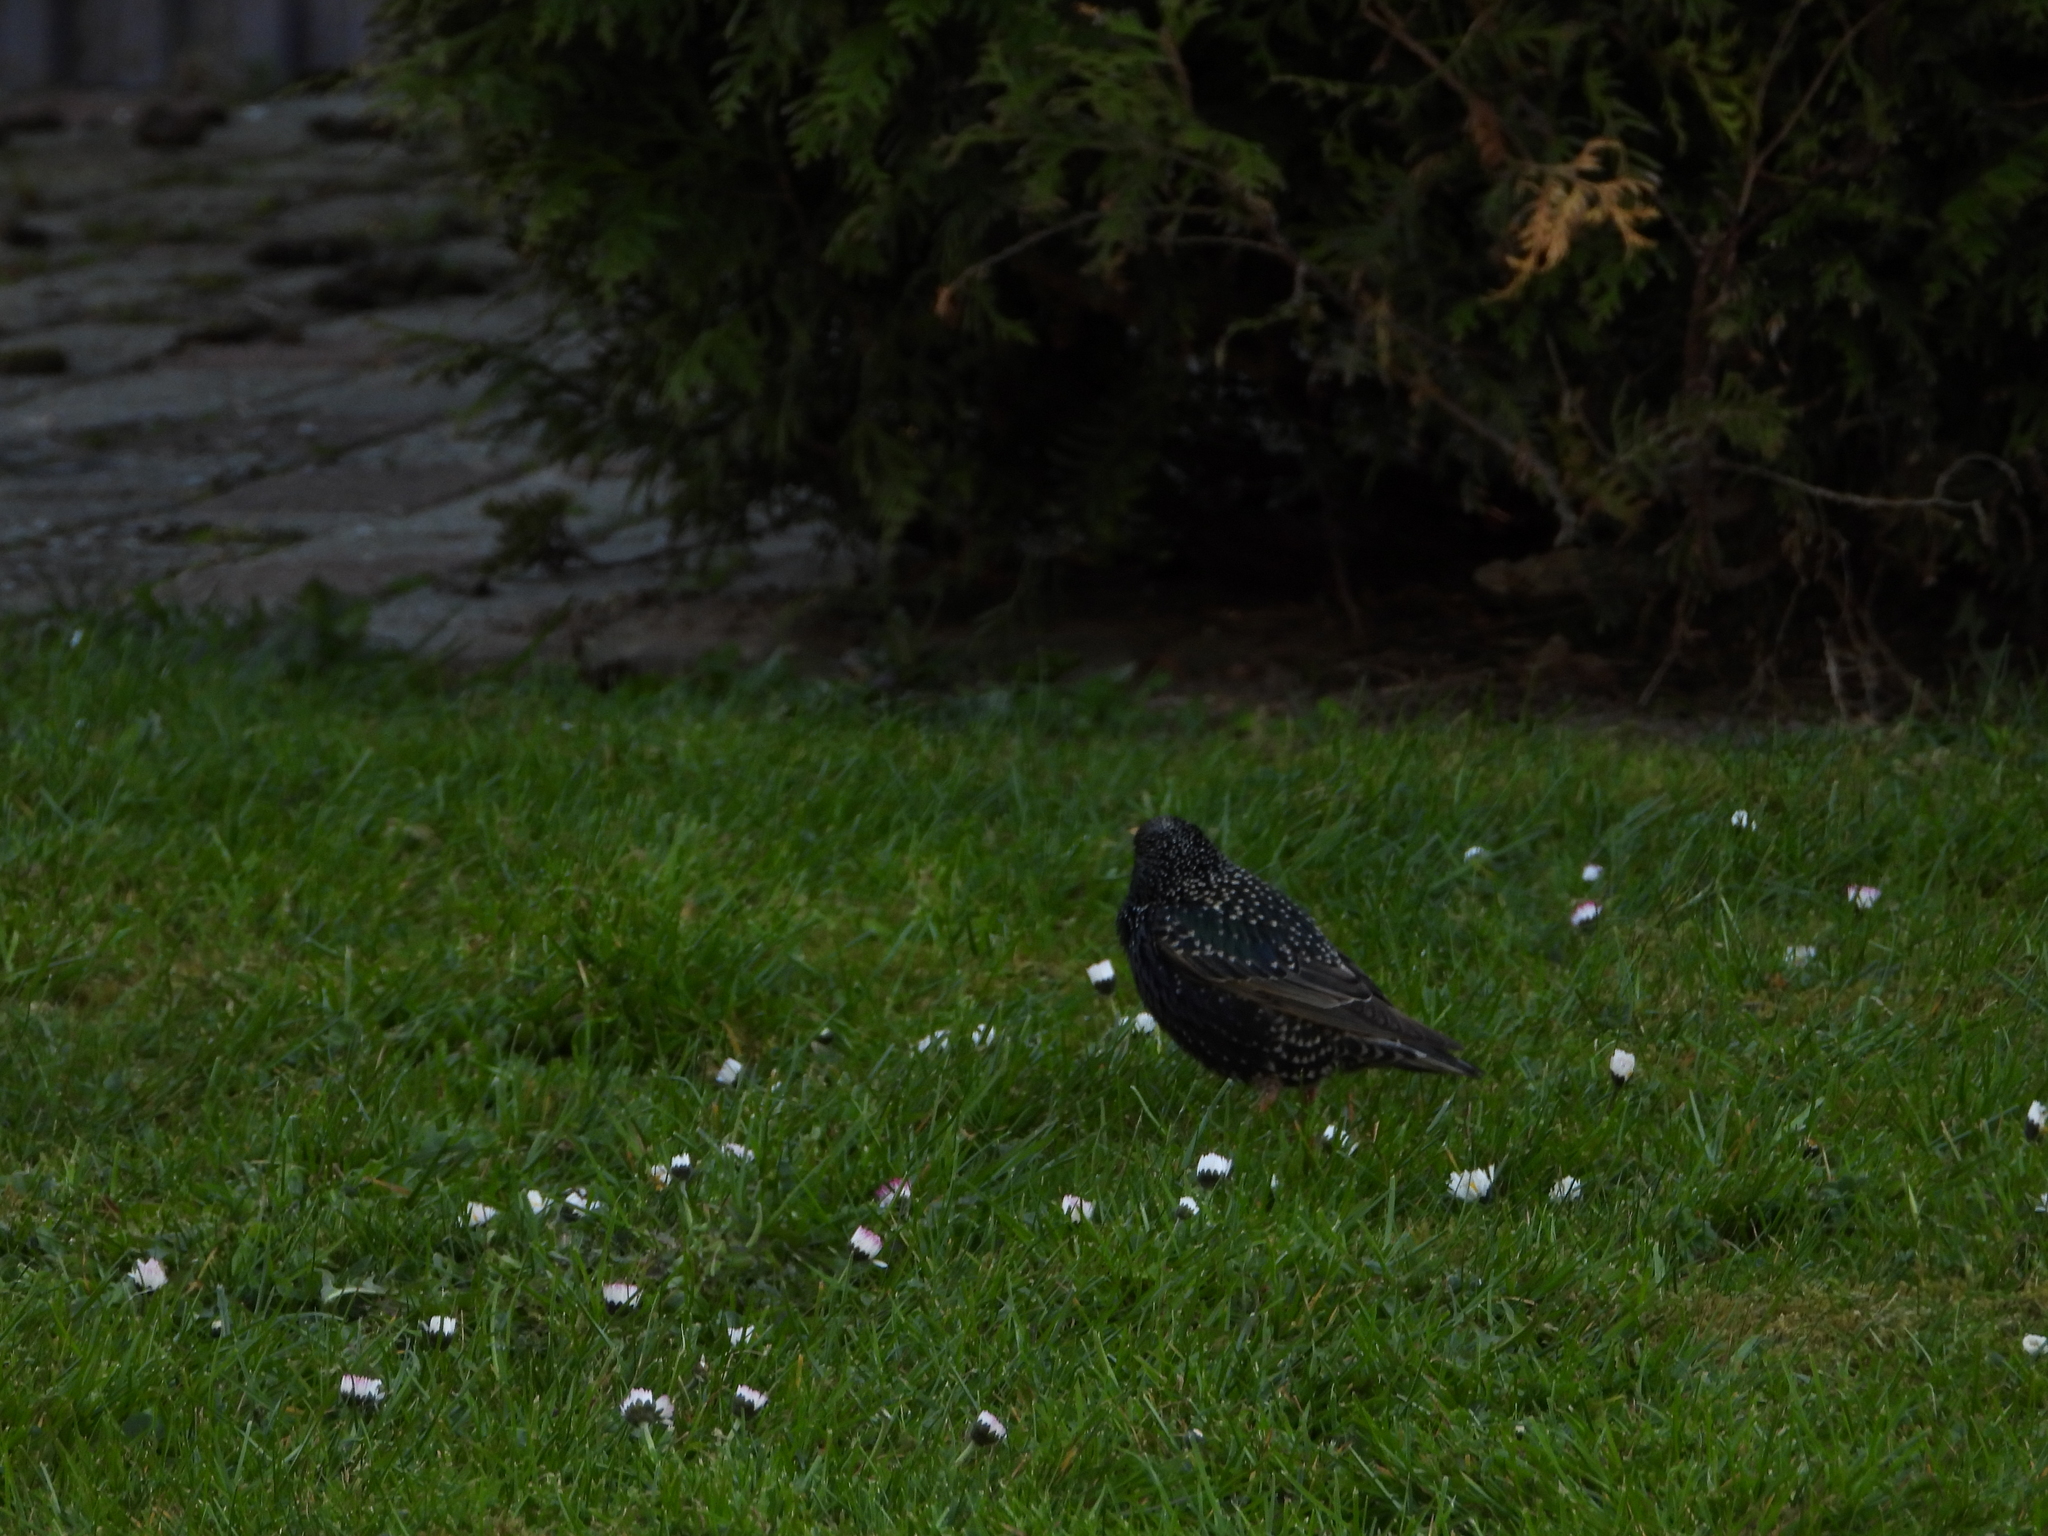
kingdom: Animalia
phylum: Chordata
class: Aves
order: Passeriformes
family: Sturnidae
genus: Sturnus
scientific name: Sturnus vulgaris
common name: Common starling
